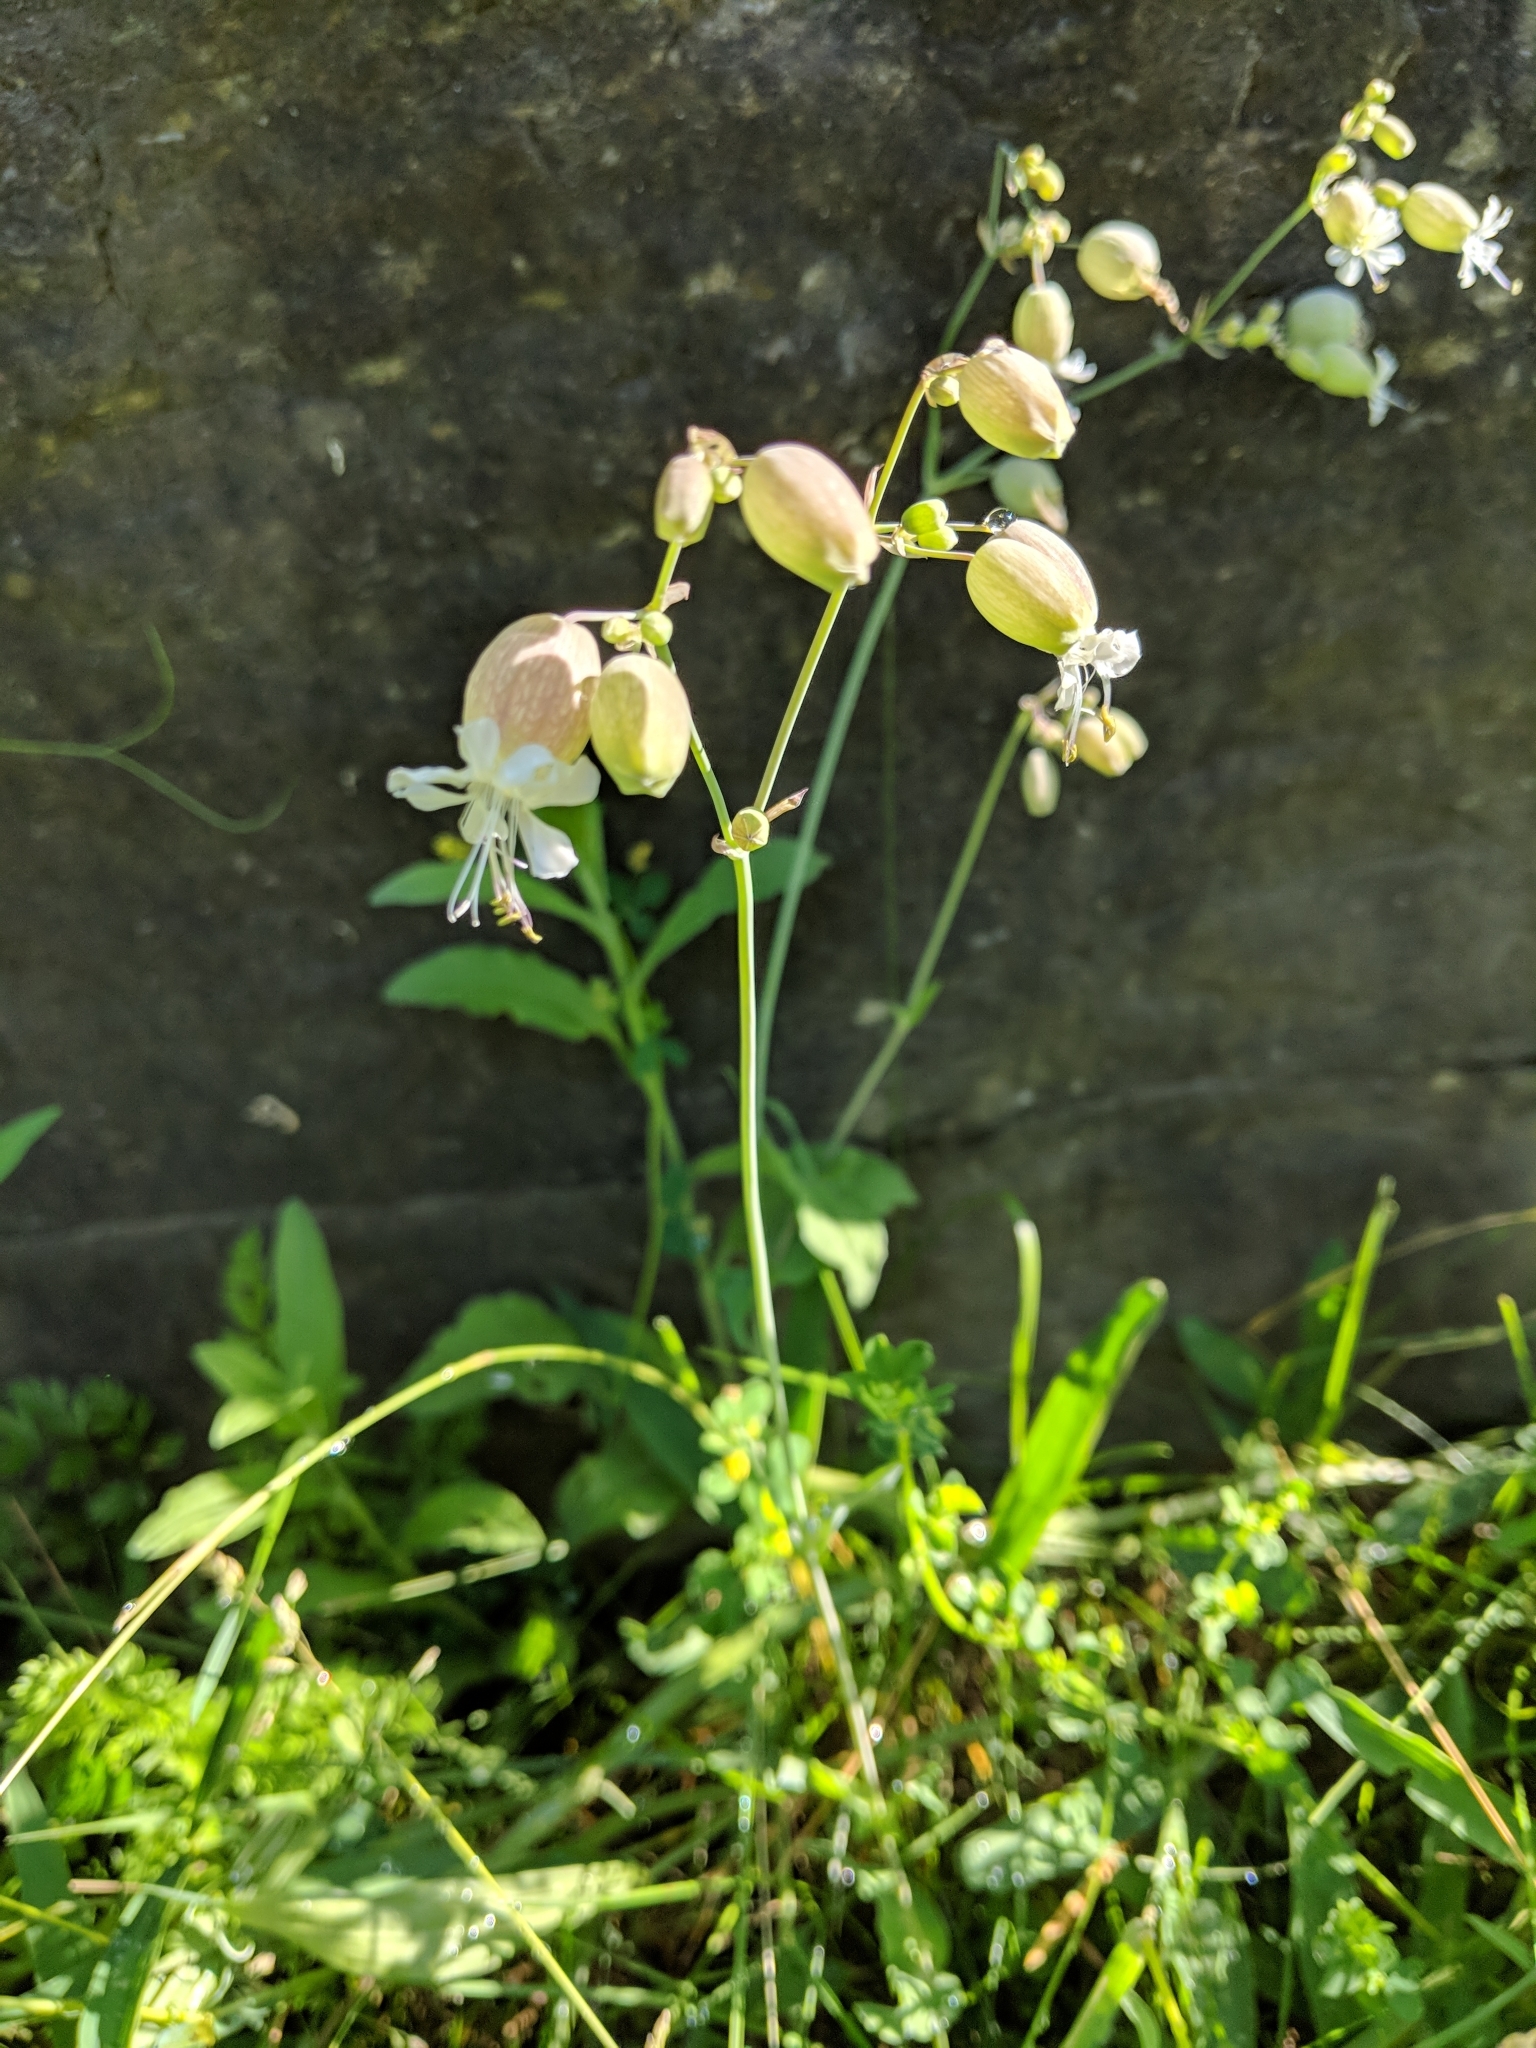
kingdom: Plantae
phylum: Tracheophyta
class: Magnoliopsida
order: Caryophyllales
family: Caryophyllaceae
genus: Silene
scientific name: Silene vulgaris
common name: Bladder campion
